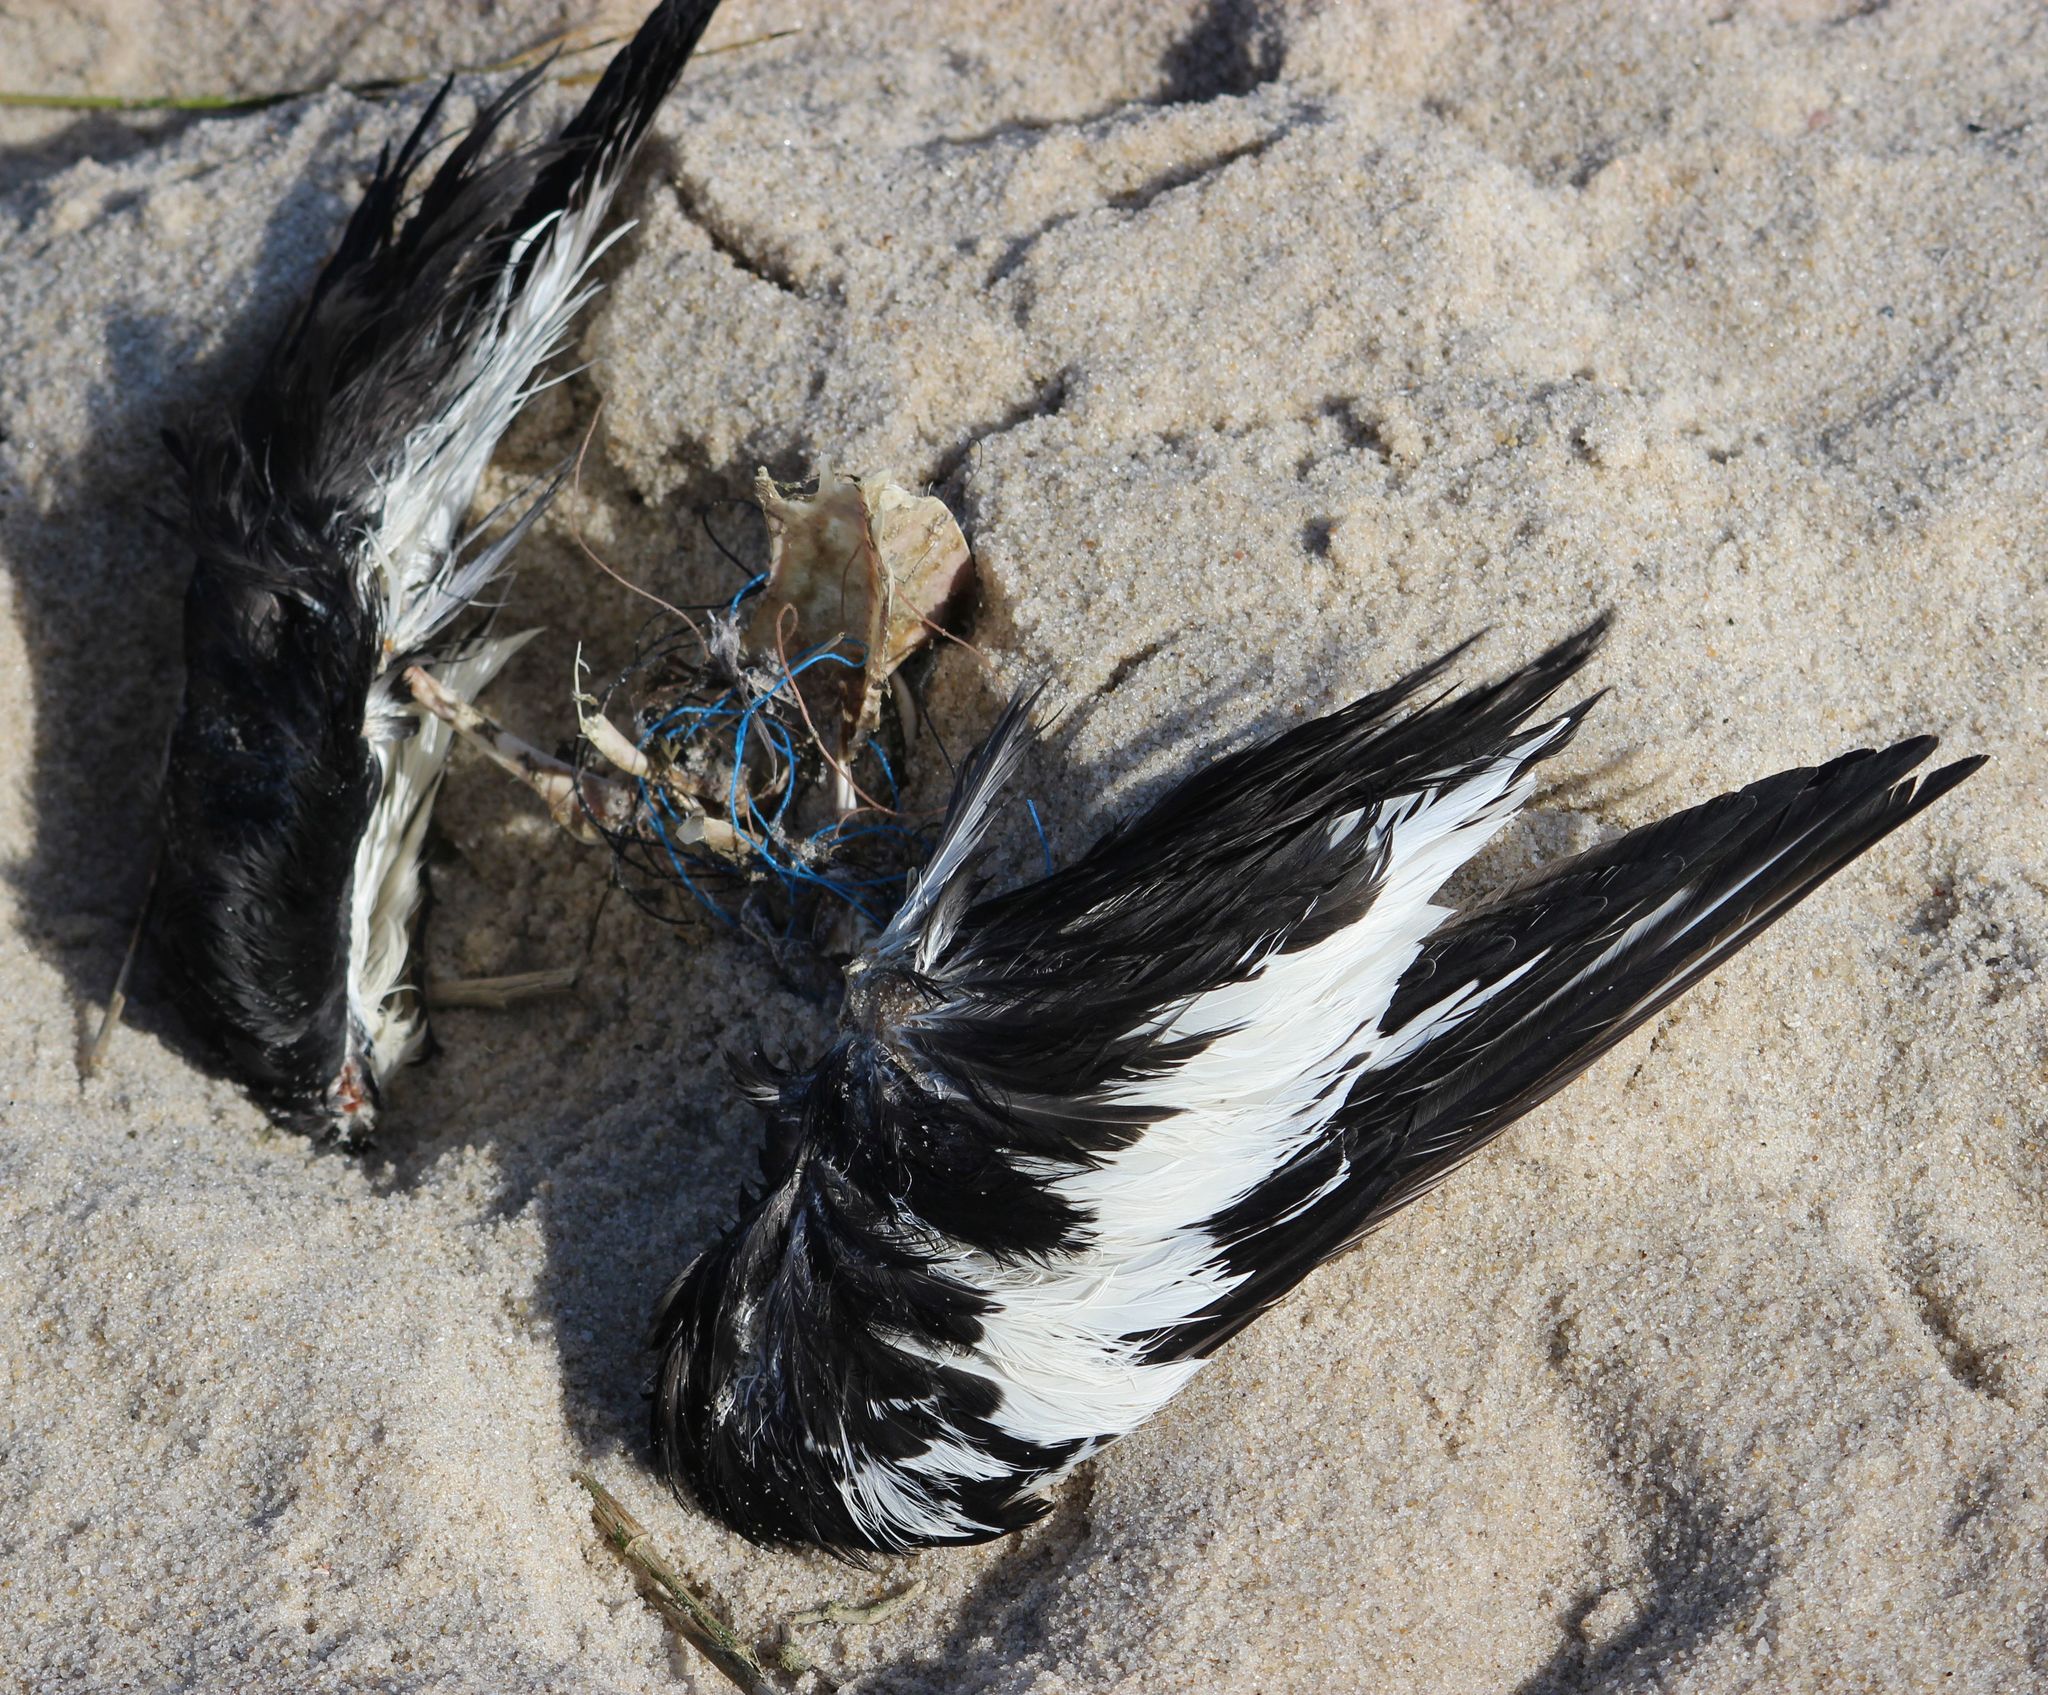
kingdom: Animalia
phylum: Chordata
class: Aves
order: Charadriiformes
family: Haematopodidae
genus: Haematopus
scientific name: Haematopus ostralegus
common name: Eurasian oystercatcher
